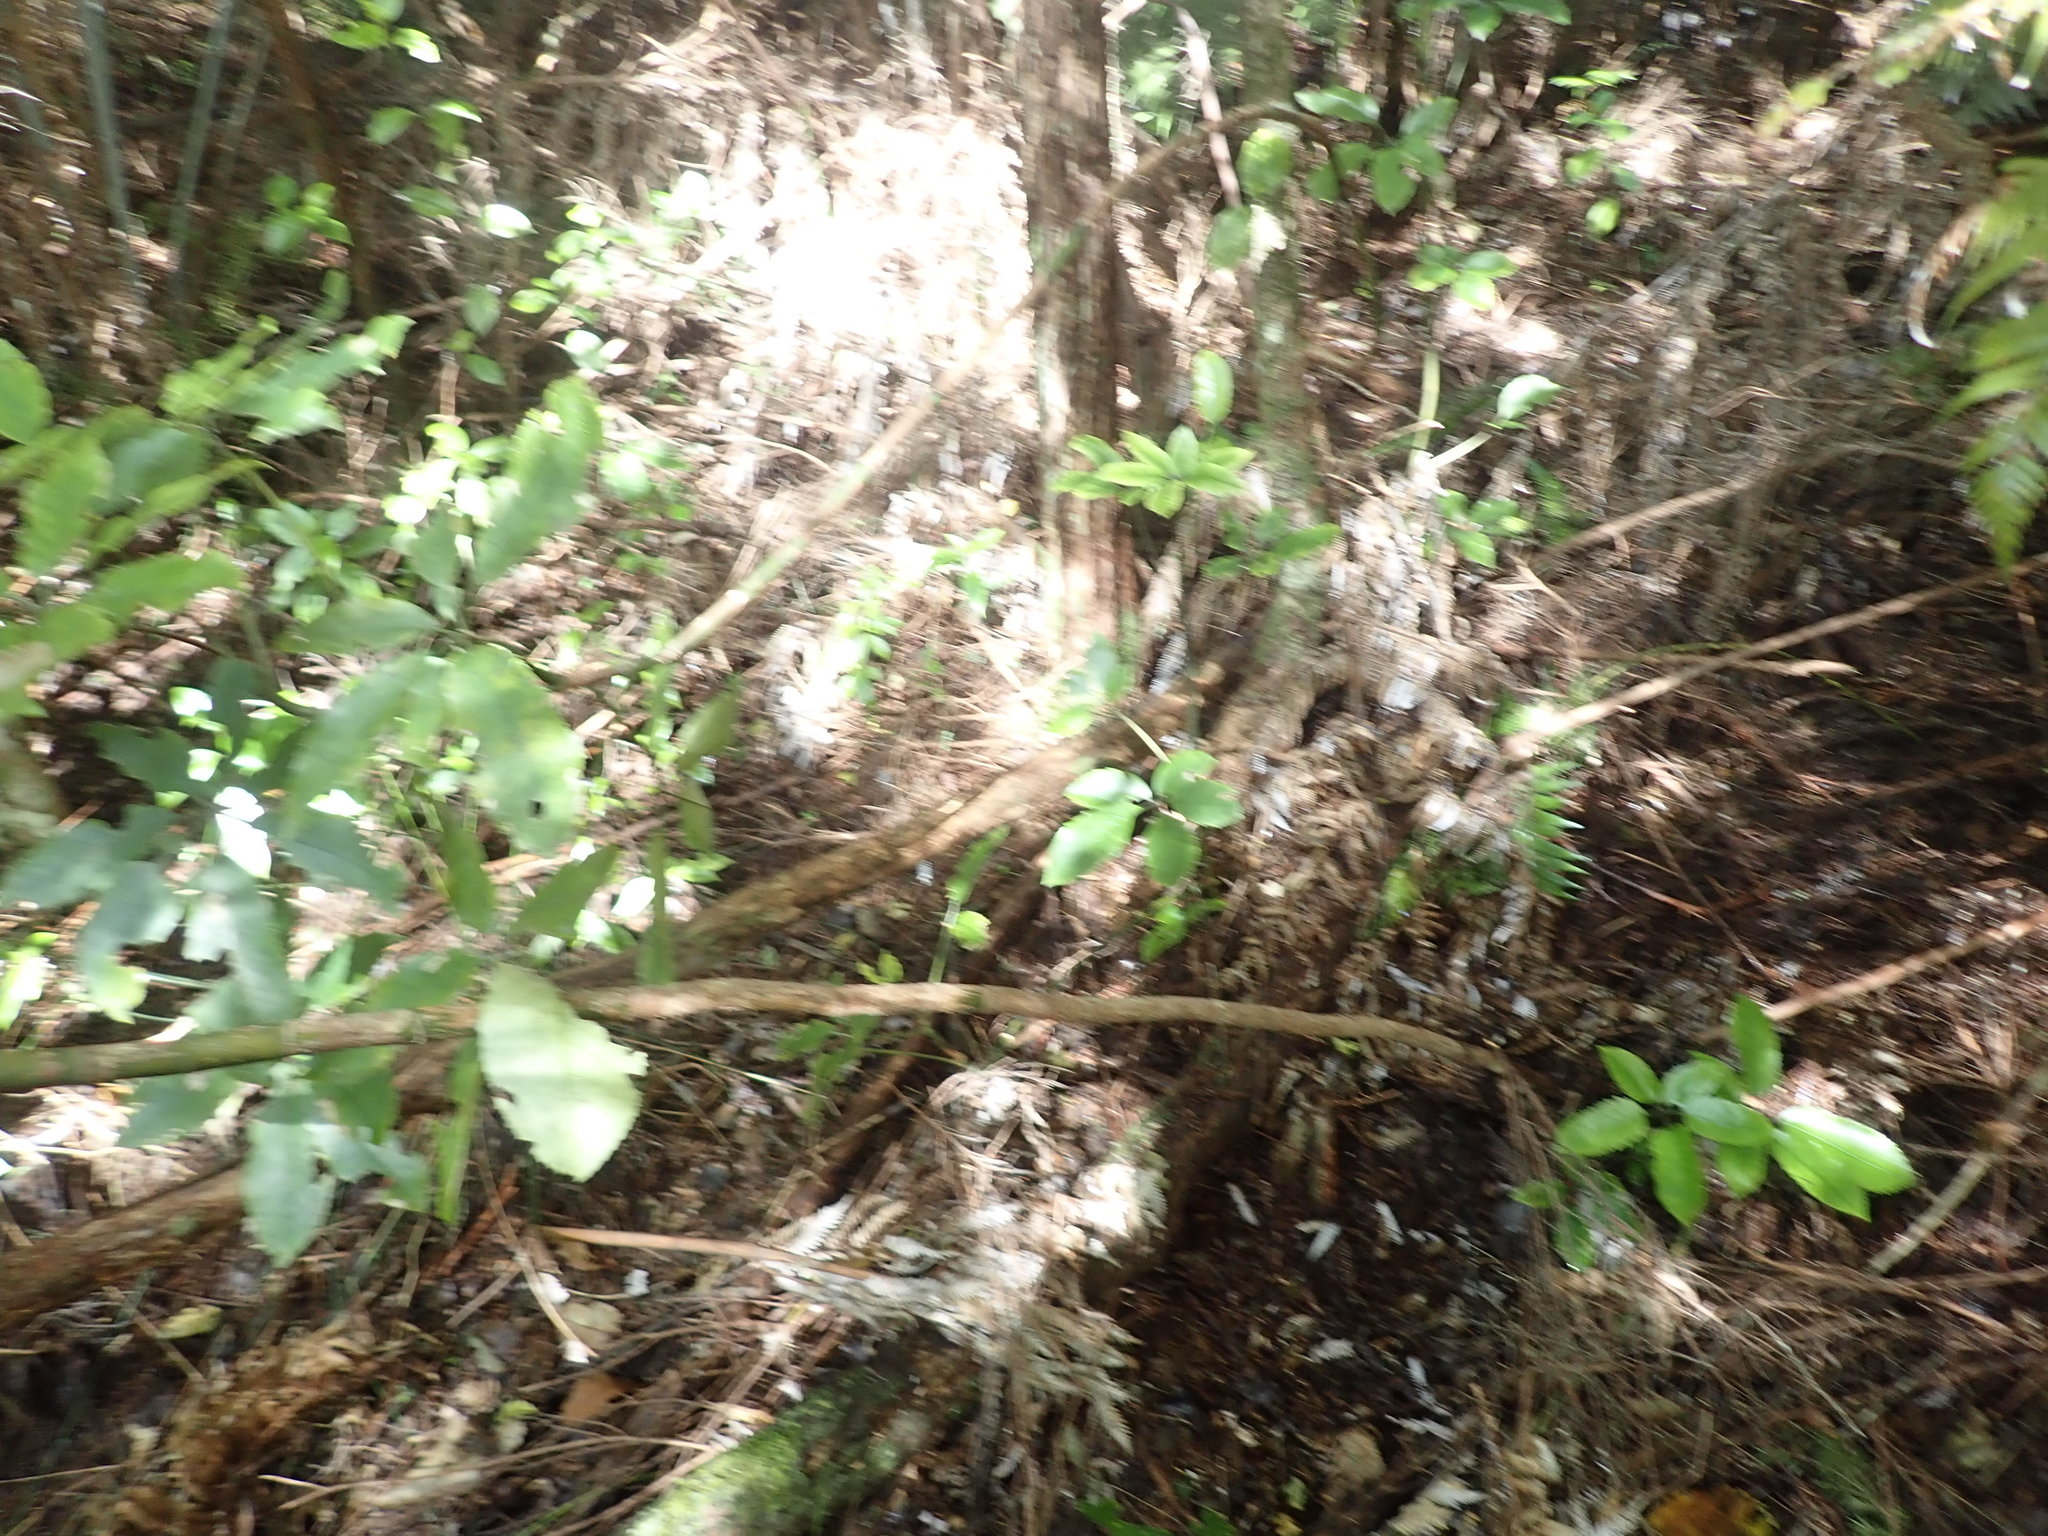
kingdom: Plantae
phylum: Tracheophyta
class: Magnoliopsida
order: Apiales
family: Araliaceae
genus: Neopanax
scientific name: Neopanax arboreus
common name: Five-fingers
